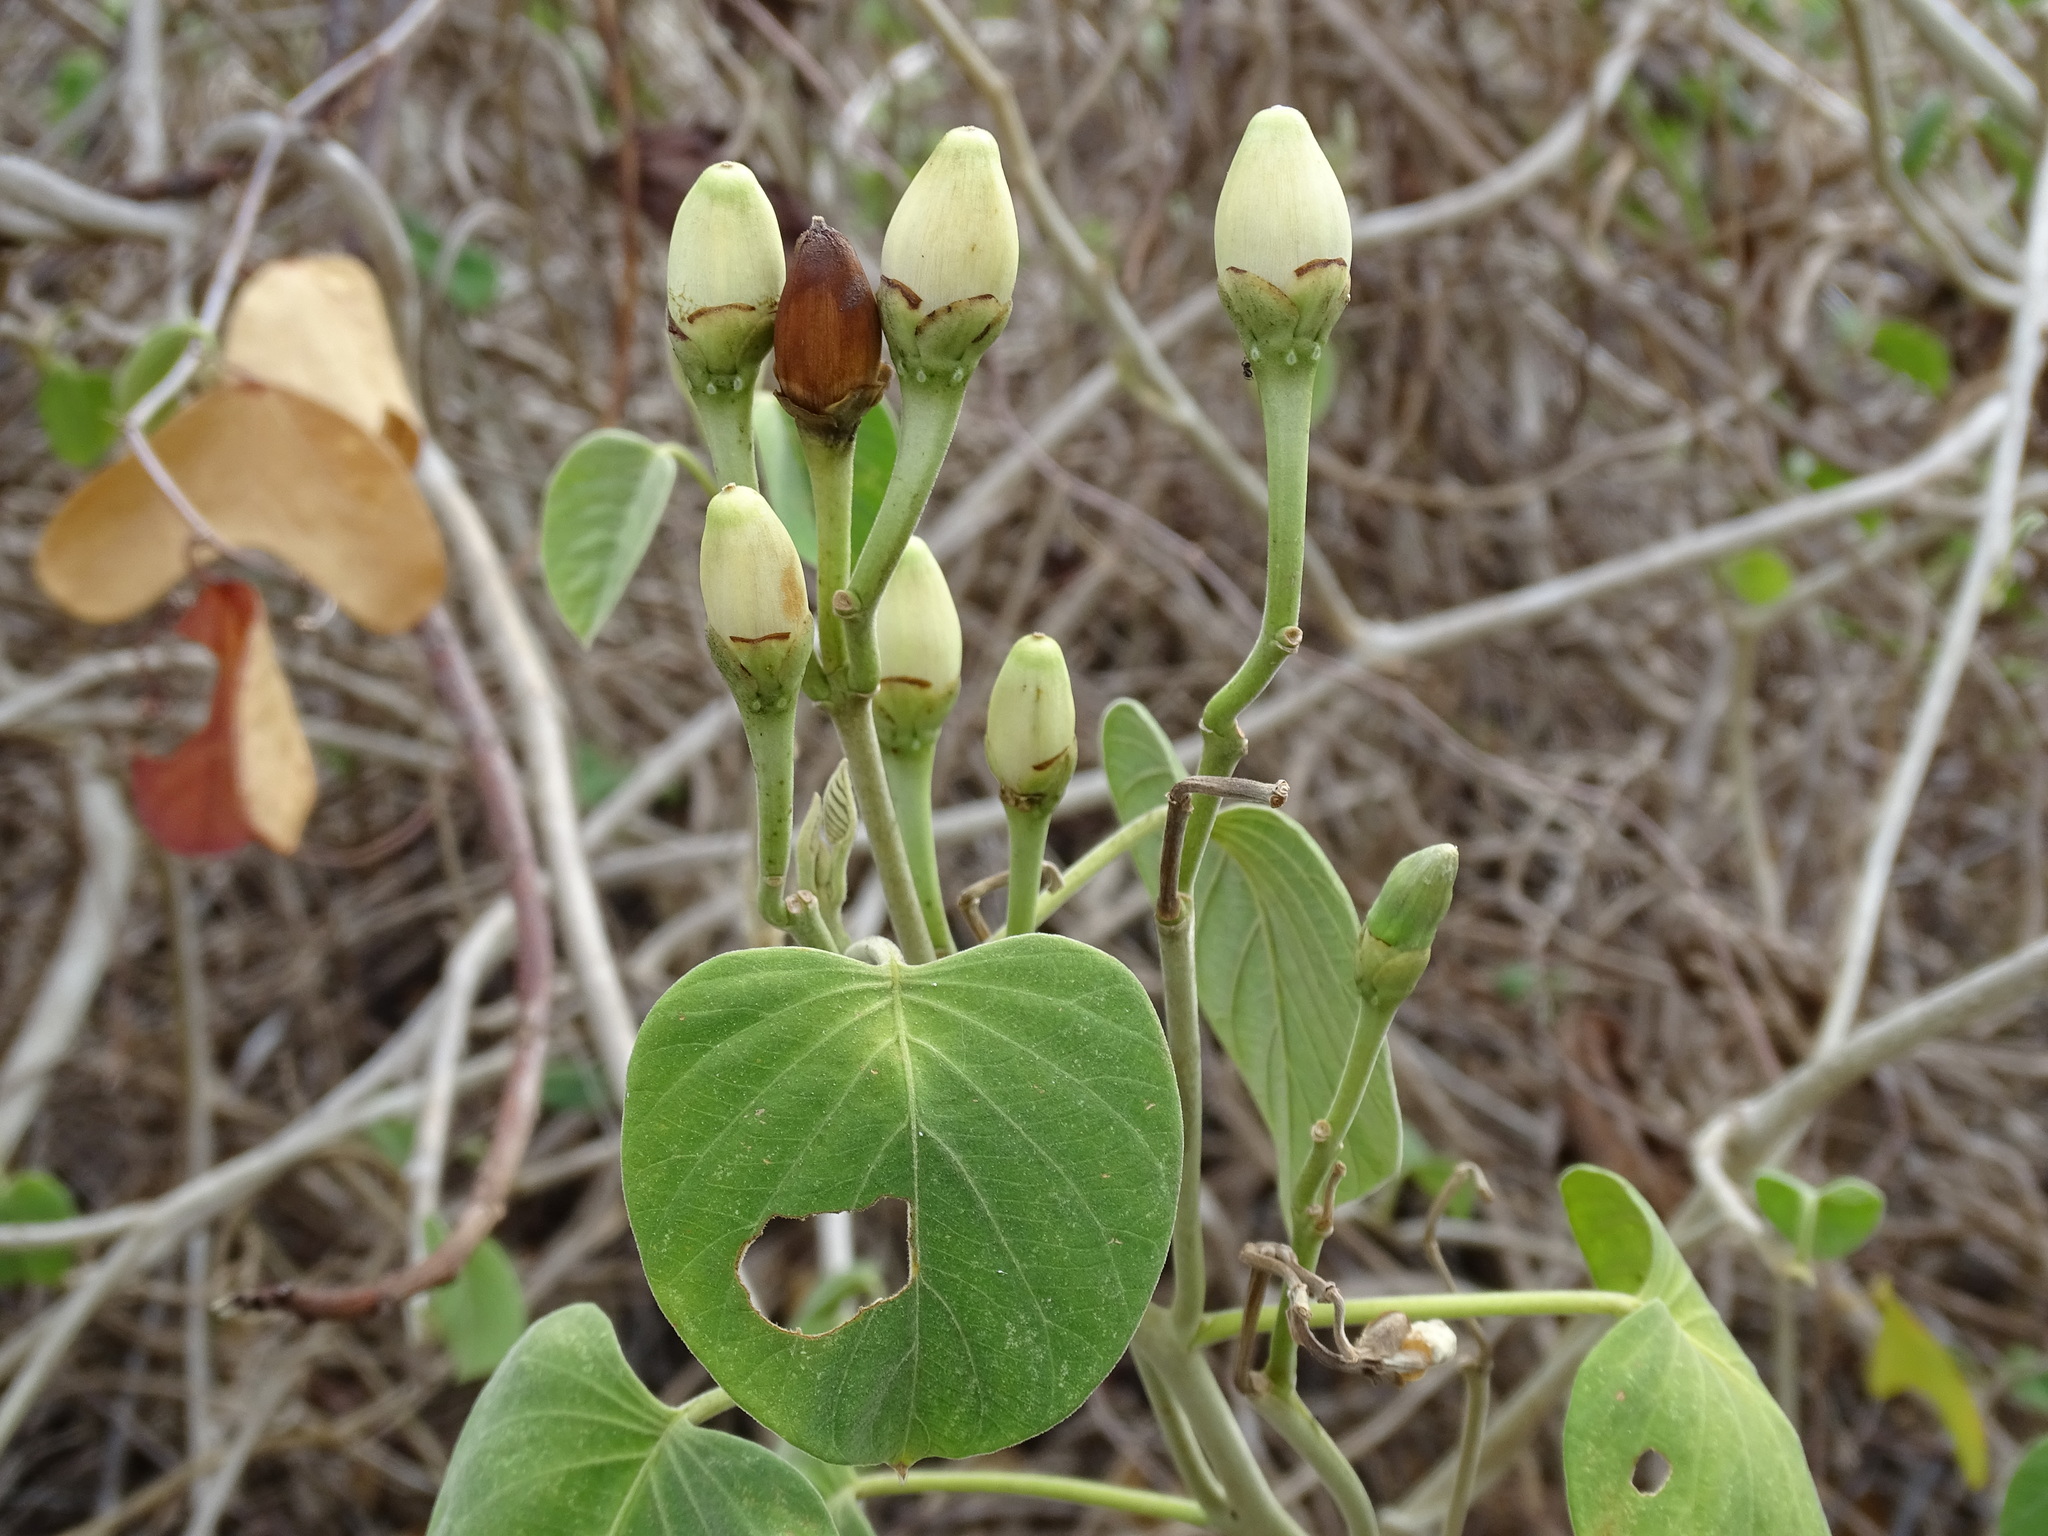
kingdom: Plantae
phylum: Tracheophyta
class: Magnoliopsida
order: Solanales
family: Convolvulaceae
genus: Ipomoea
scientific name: Ipomoea carnea
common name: Morning-glory
